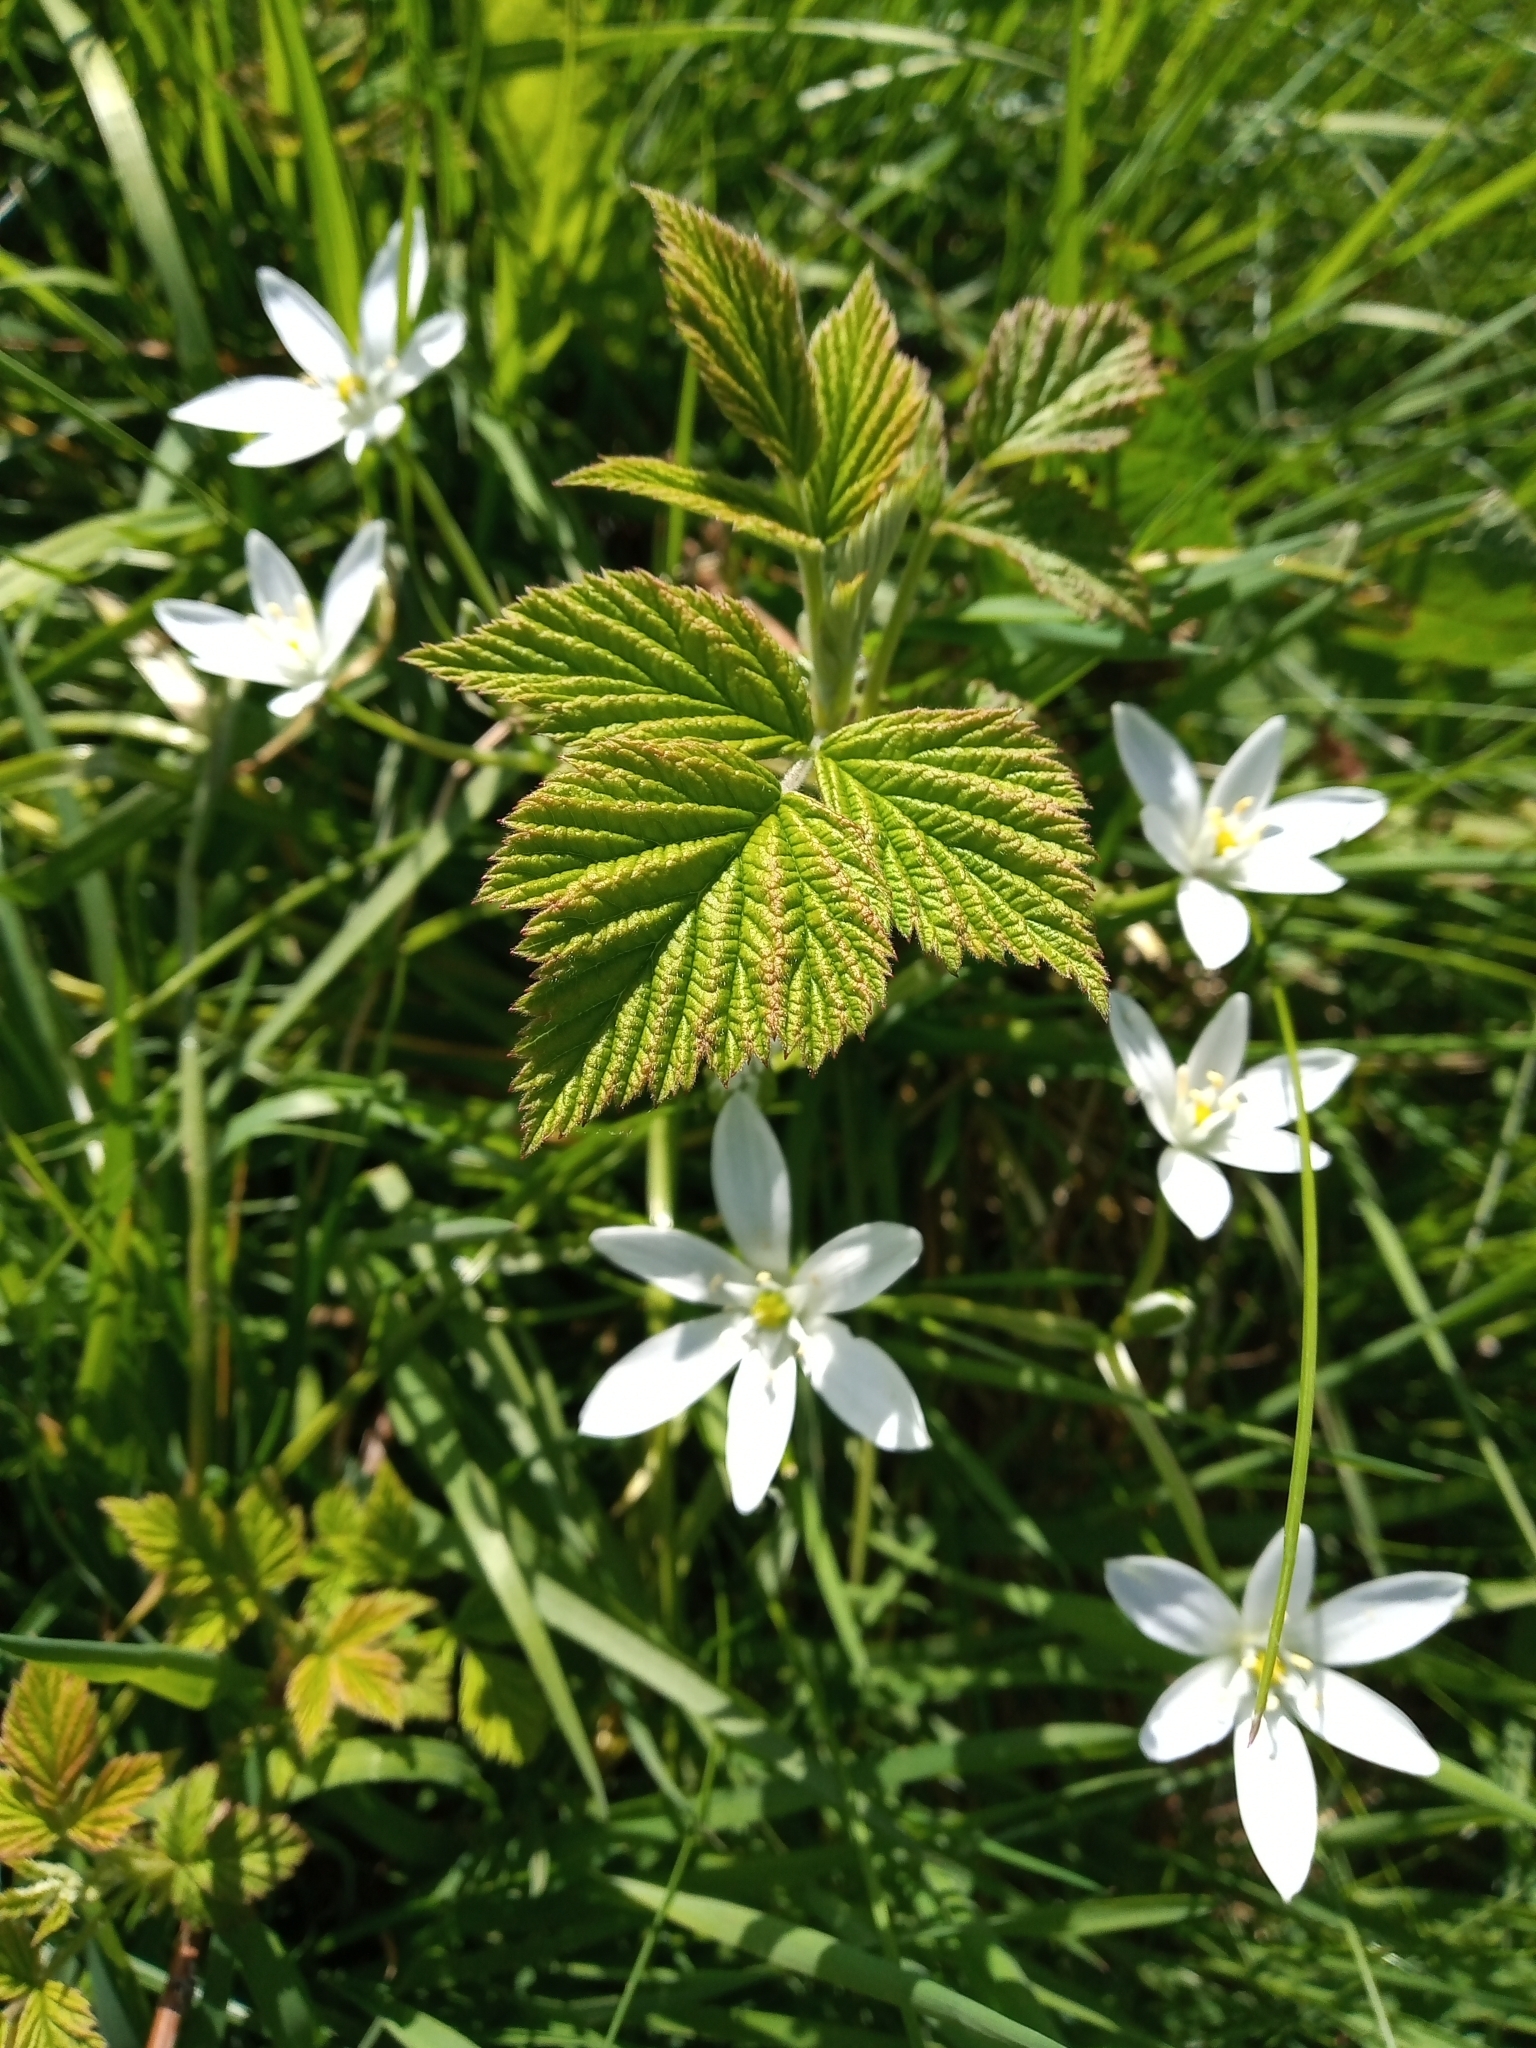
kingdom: Plantae
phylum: Tracheophyta
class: Liliopsida
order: Asparagales
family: Asparagaceae
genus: Ornithogalum
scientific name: Ornithogalum umbellatum
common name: Garden star-of-bethlehem
